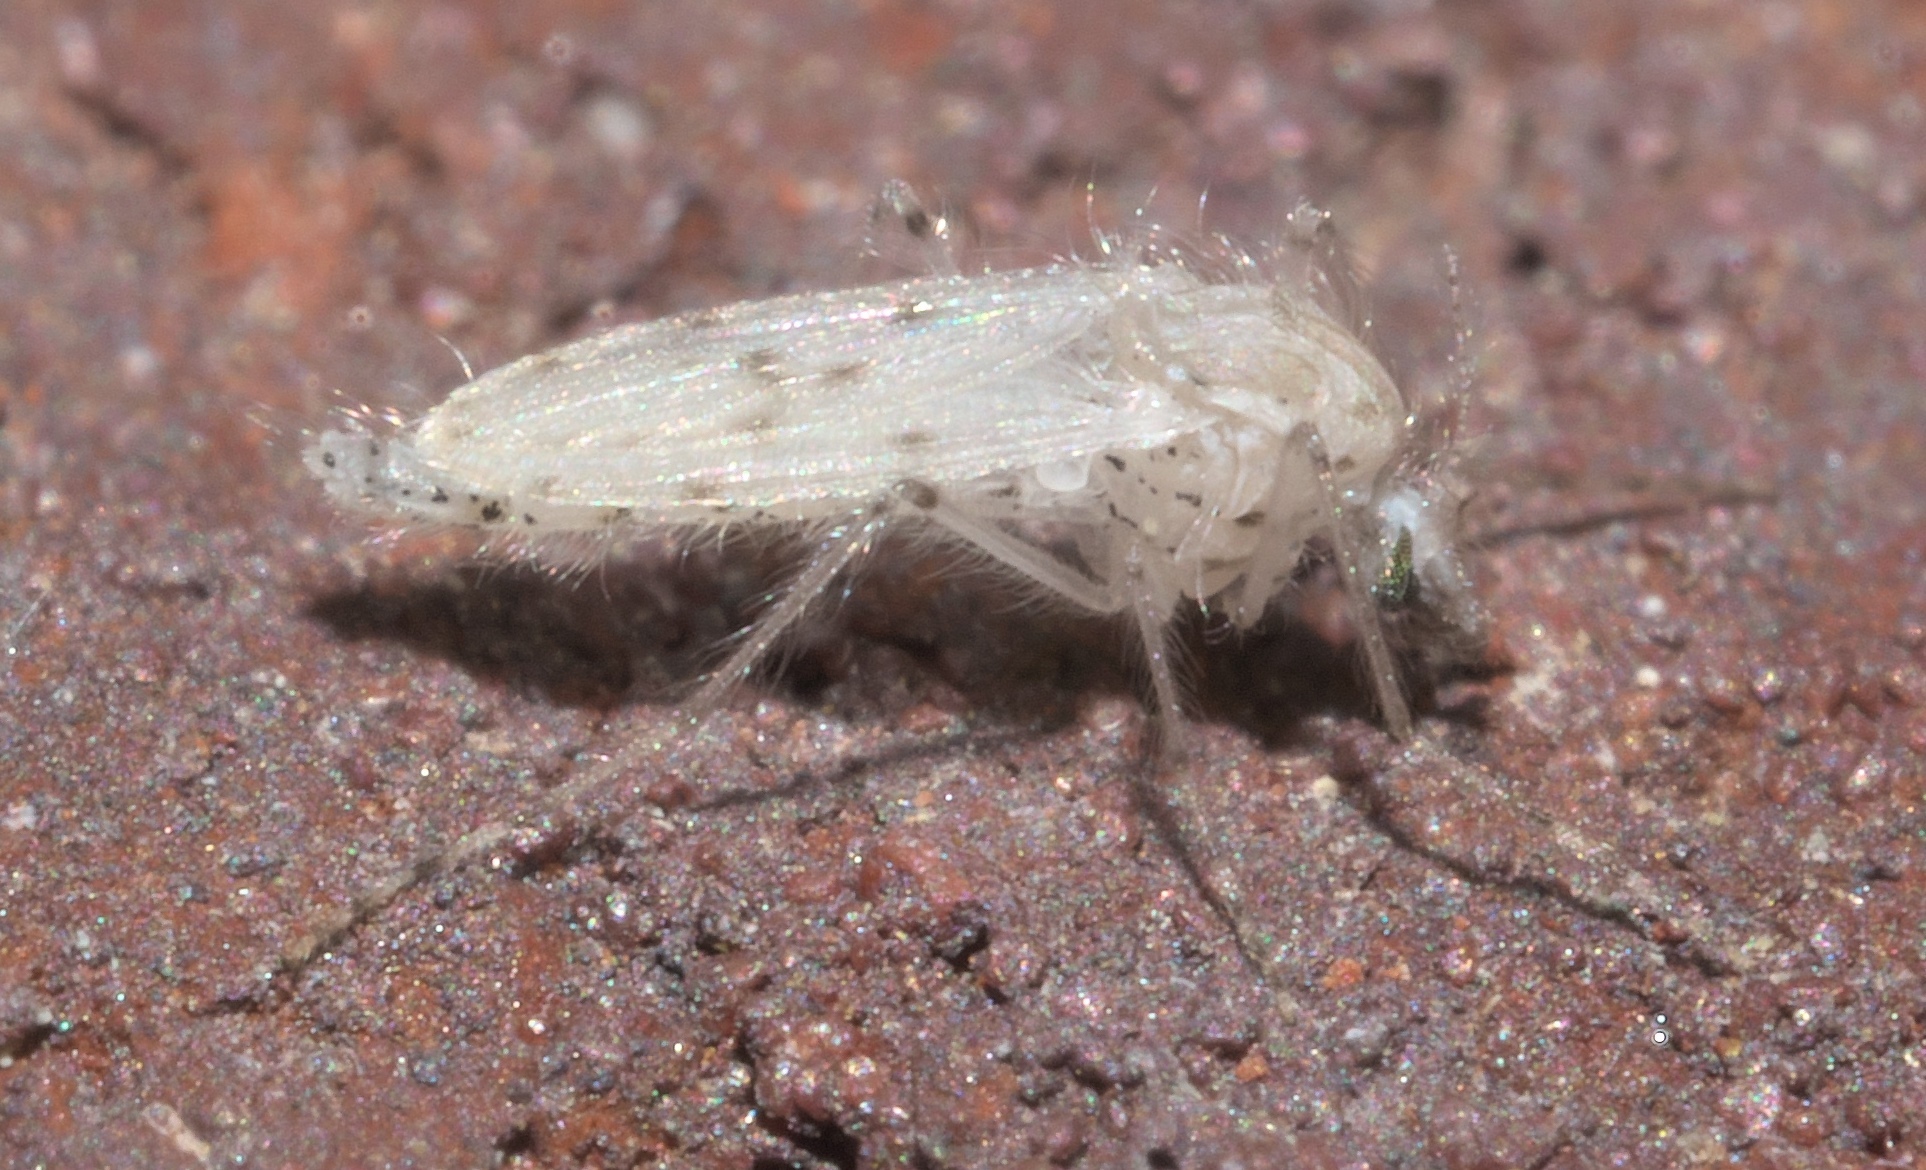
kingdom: Animalia
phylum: Arthropoda
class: Insecta
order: Diptera
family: Chaoboridae
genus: Chaoborus
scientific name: Chaoborus albatus
